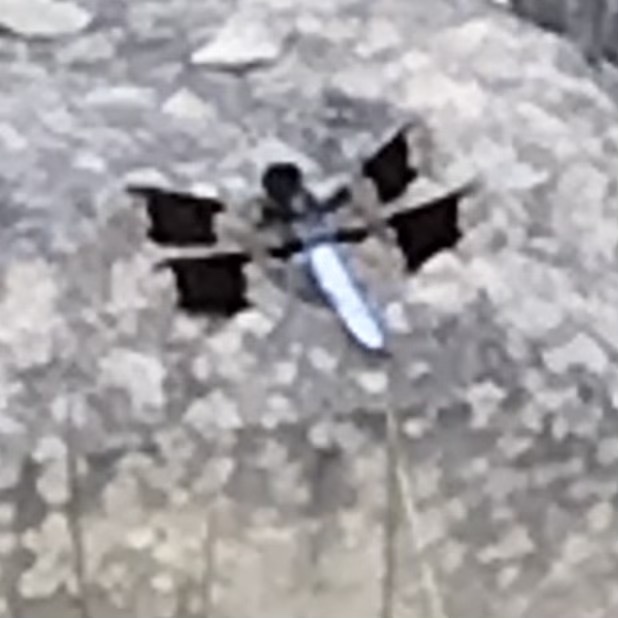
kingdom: Animalia
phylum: Arthropoda
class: Insecta
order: Odonata
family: Libellulidae
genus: Plathemis
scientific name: Plathemis lydia
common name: Common whitetail
